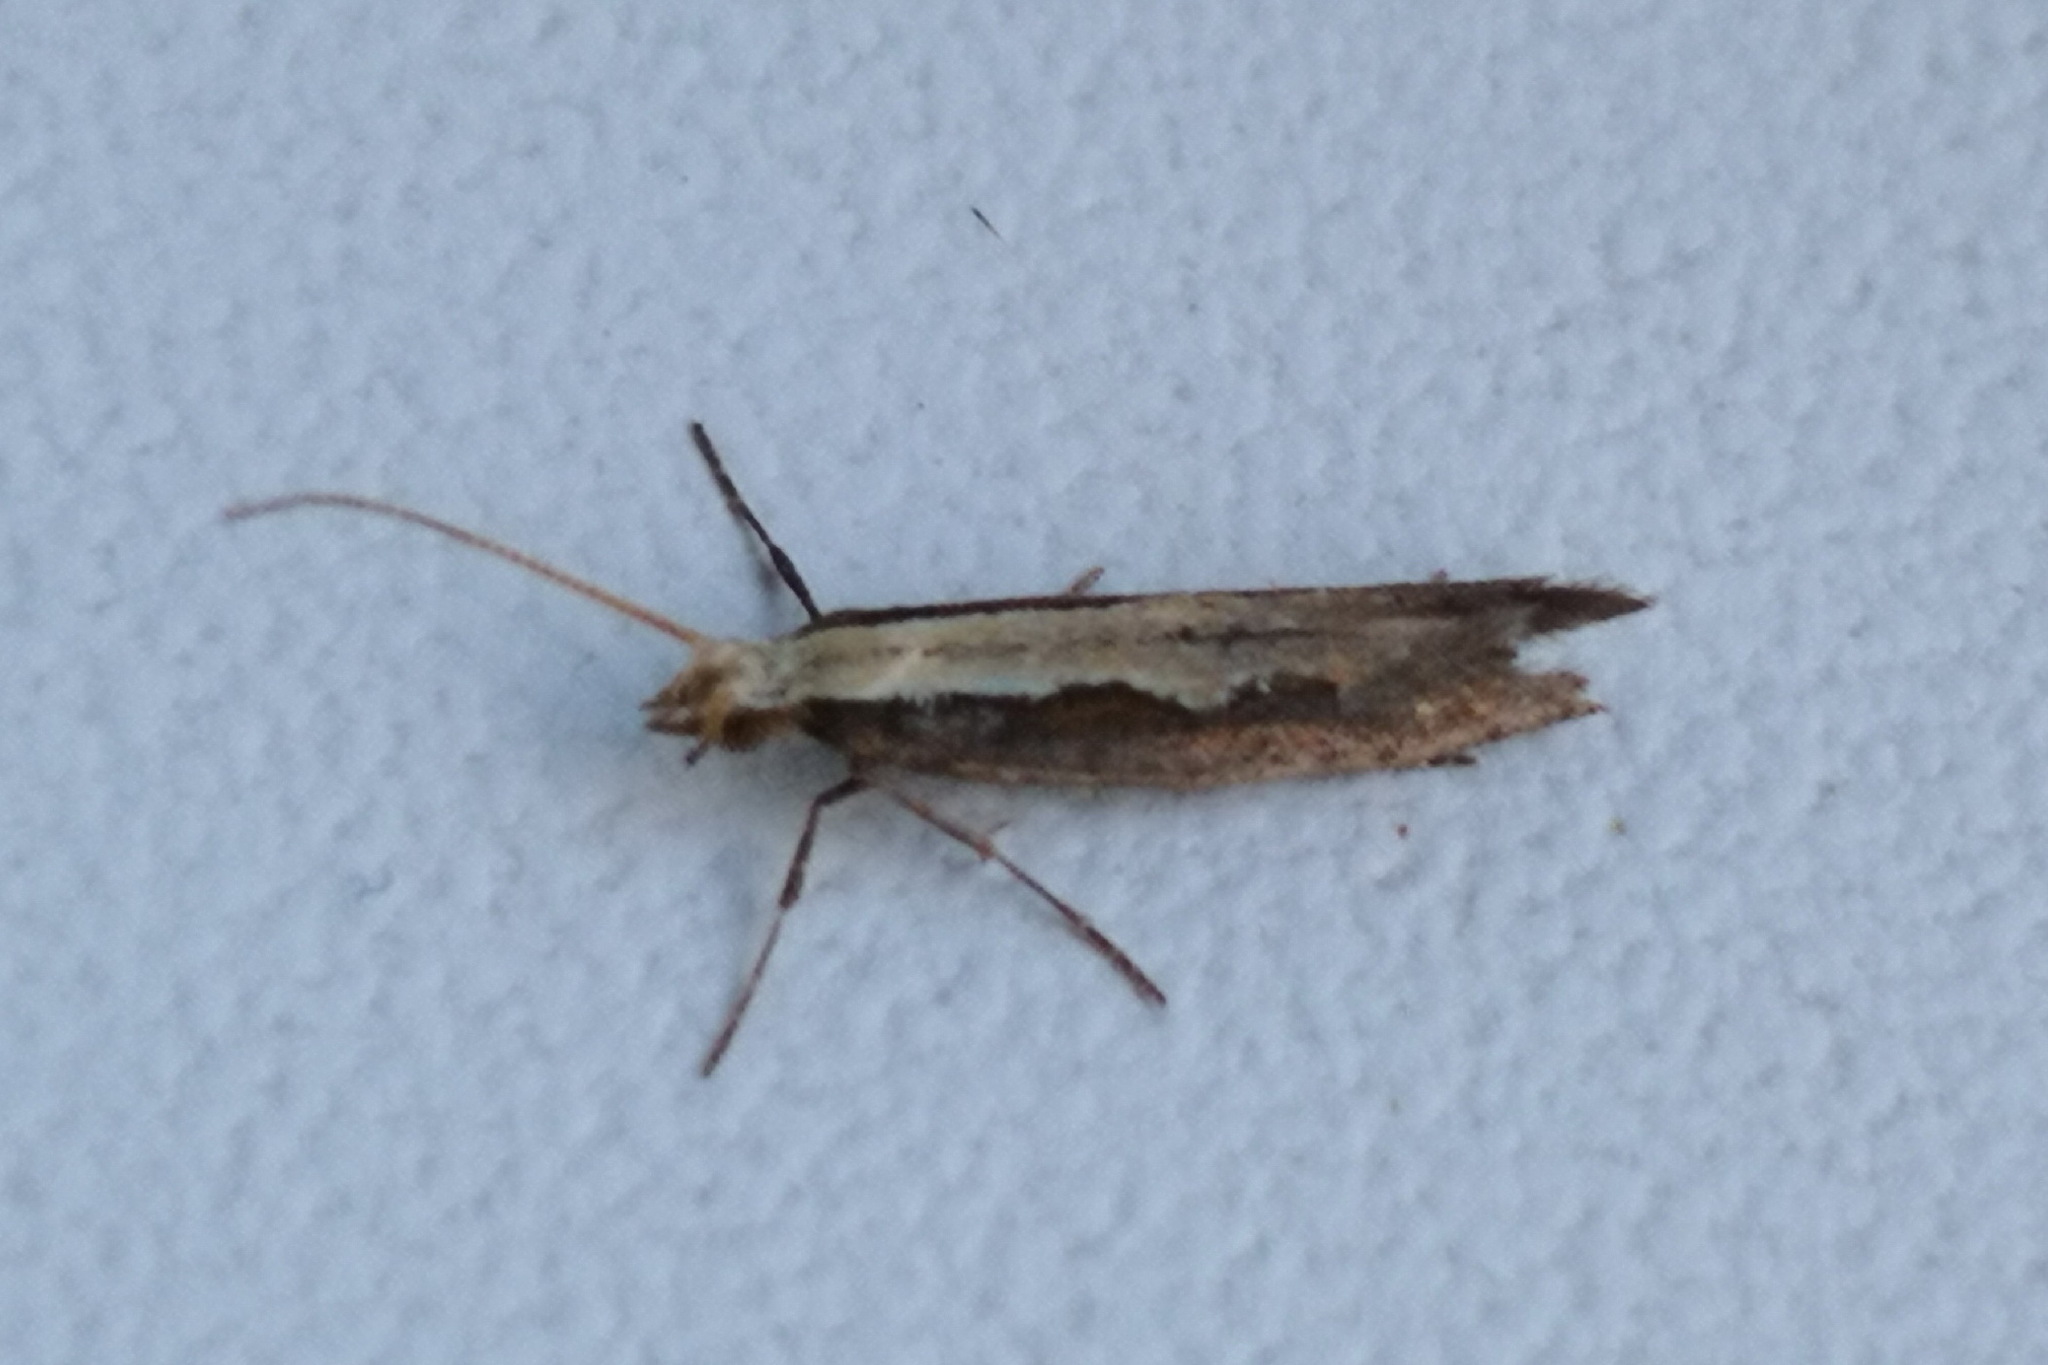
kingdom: Animalia
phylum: Arthropoda
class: Insecta
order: Lepidoptera
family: Plutellidae
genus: Plutella
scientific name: Plutella xylostella
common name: Diamond-back moth
